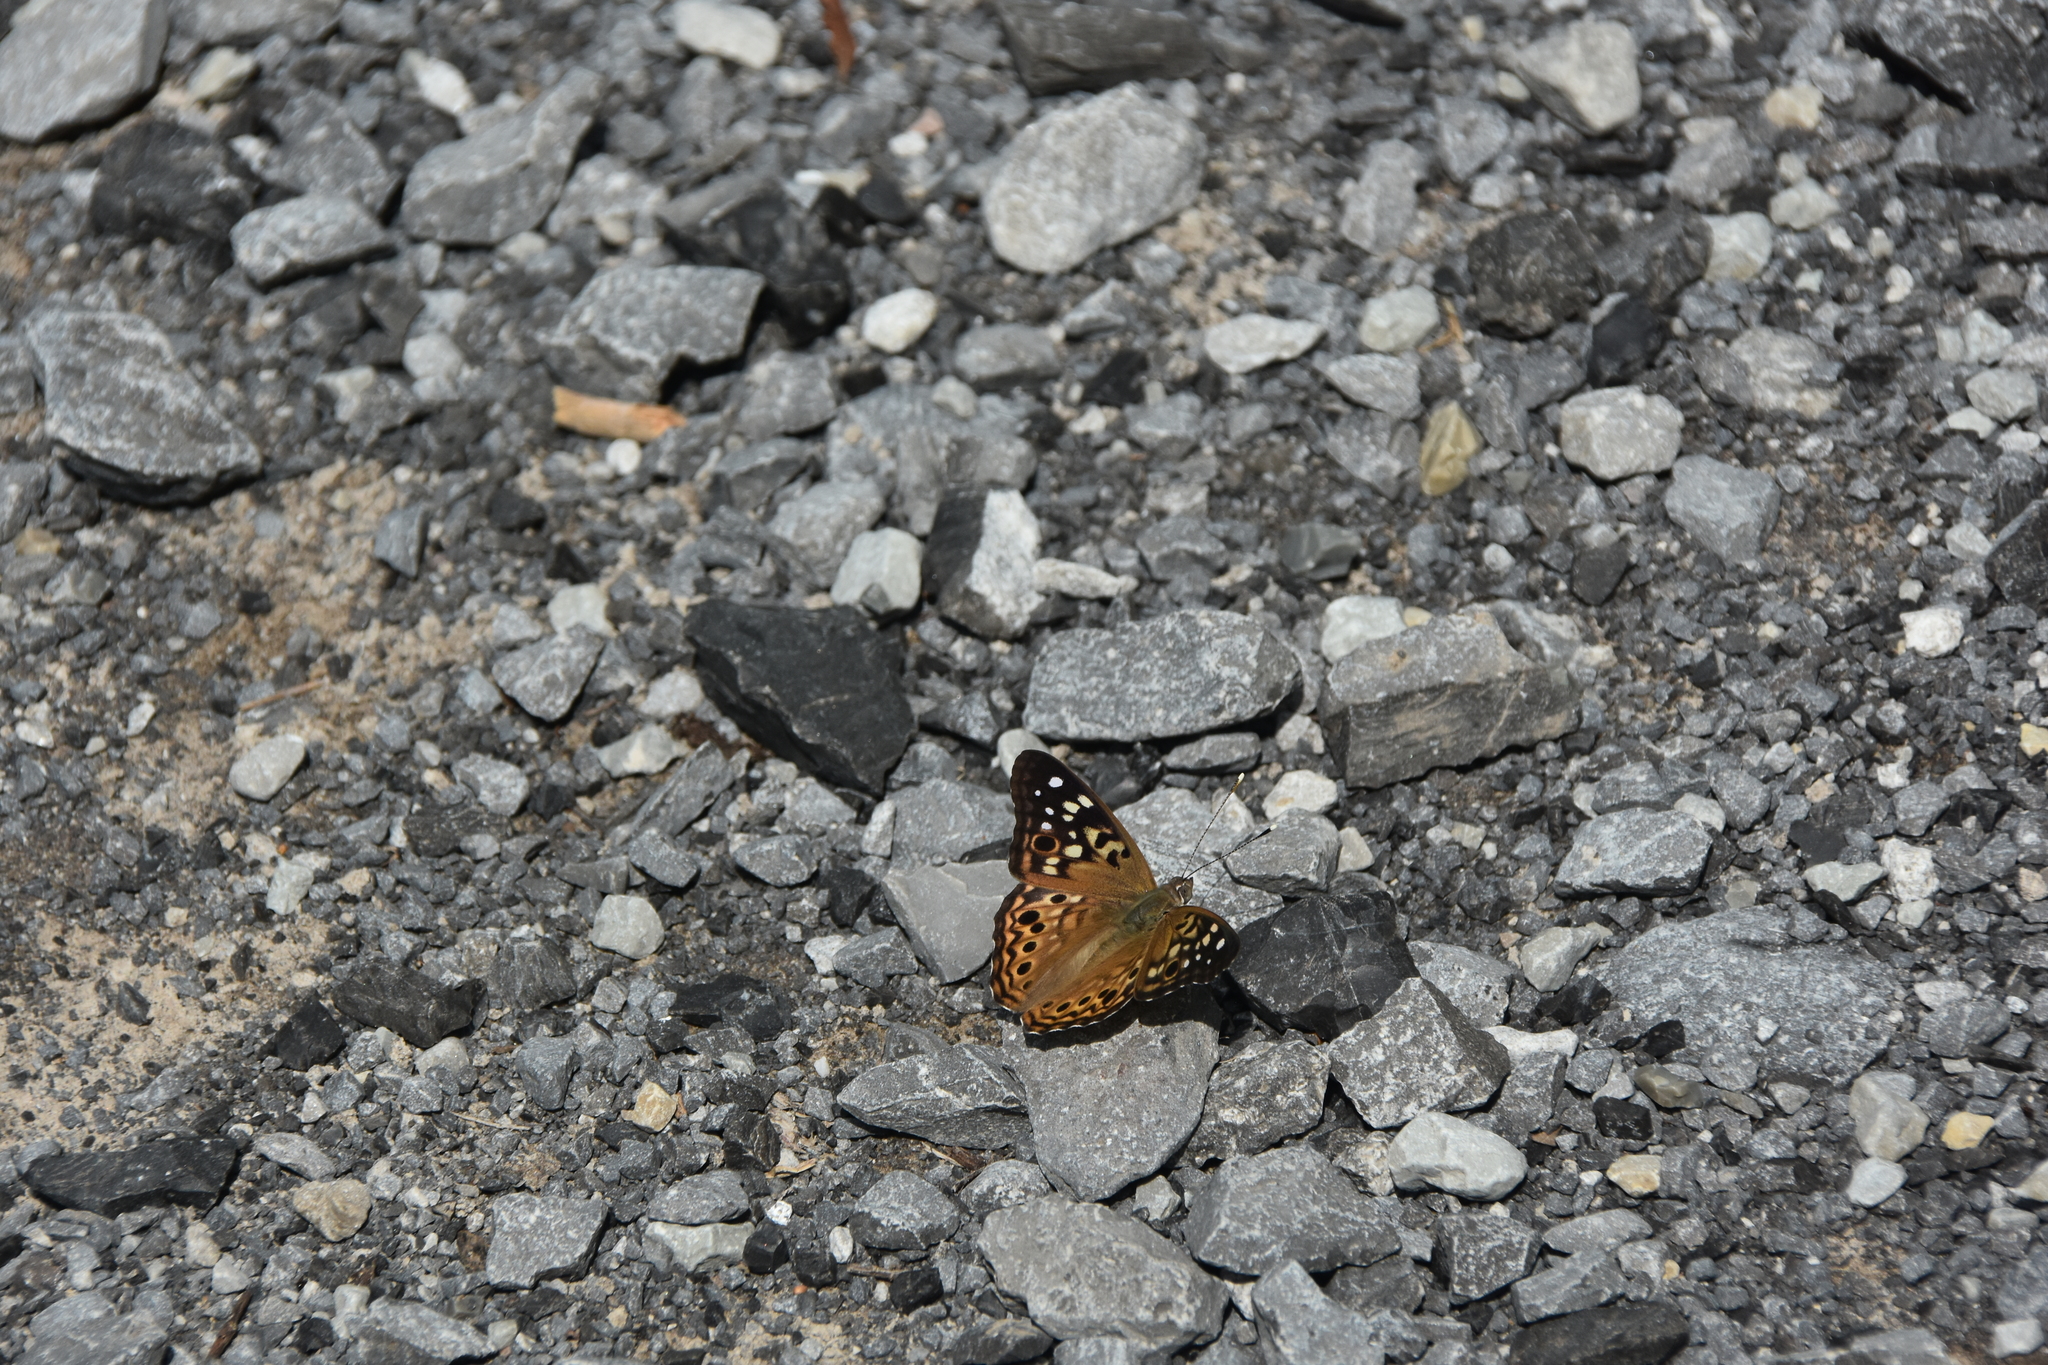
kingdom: Animalia
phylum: Arthropoda
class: Insecta
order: Lepidoptera
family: Nymphalidae
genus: Asterocampa
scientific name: Asterocampa celtis
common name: Hackberry emperor
